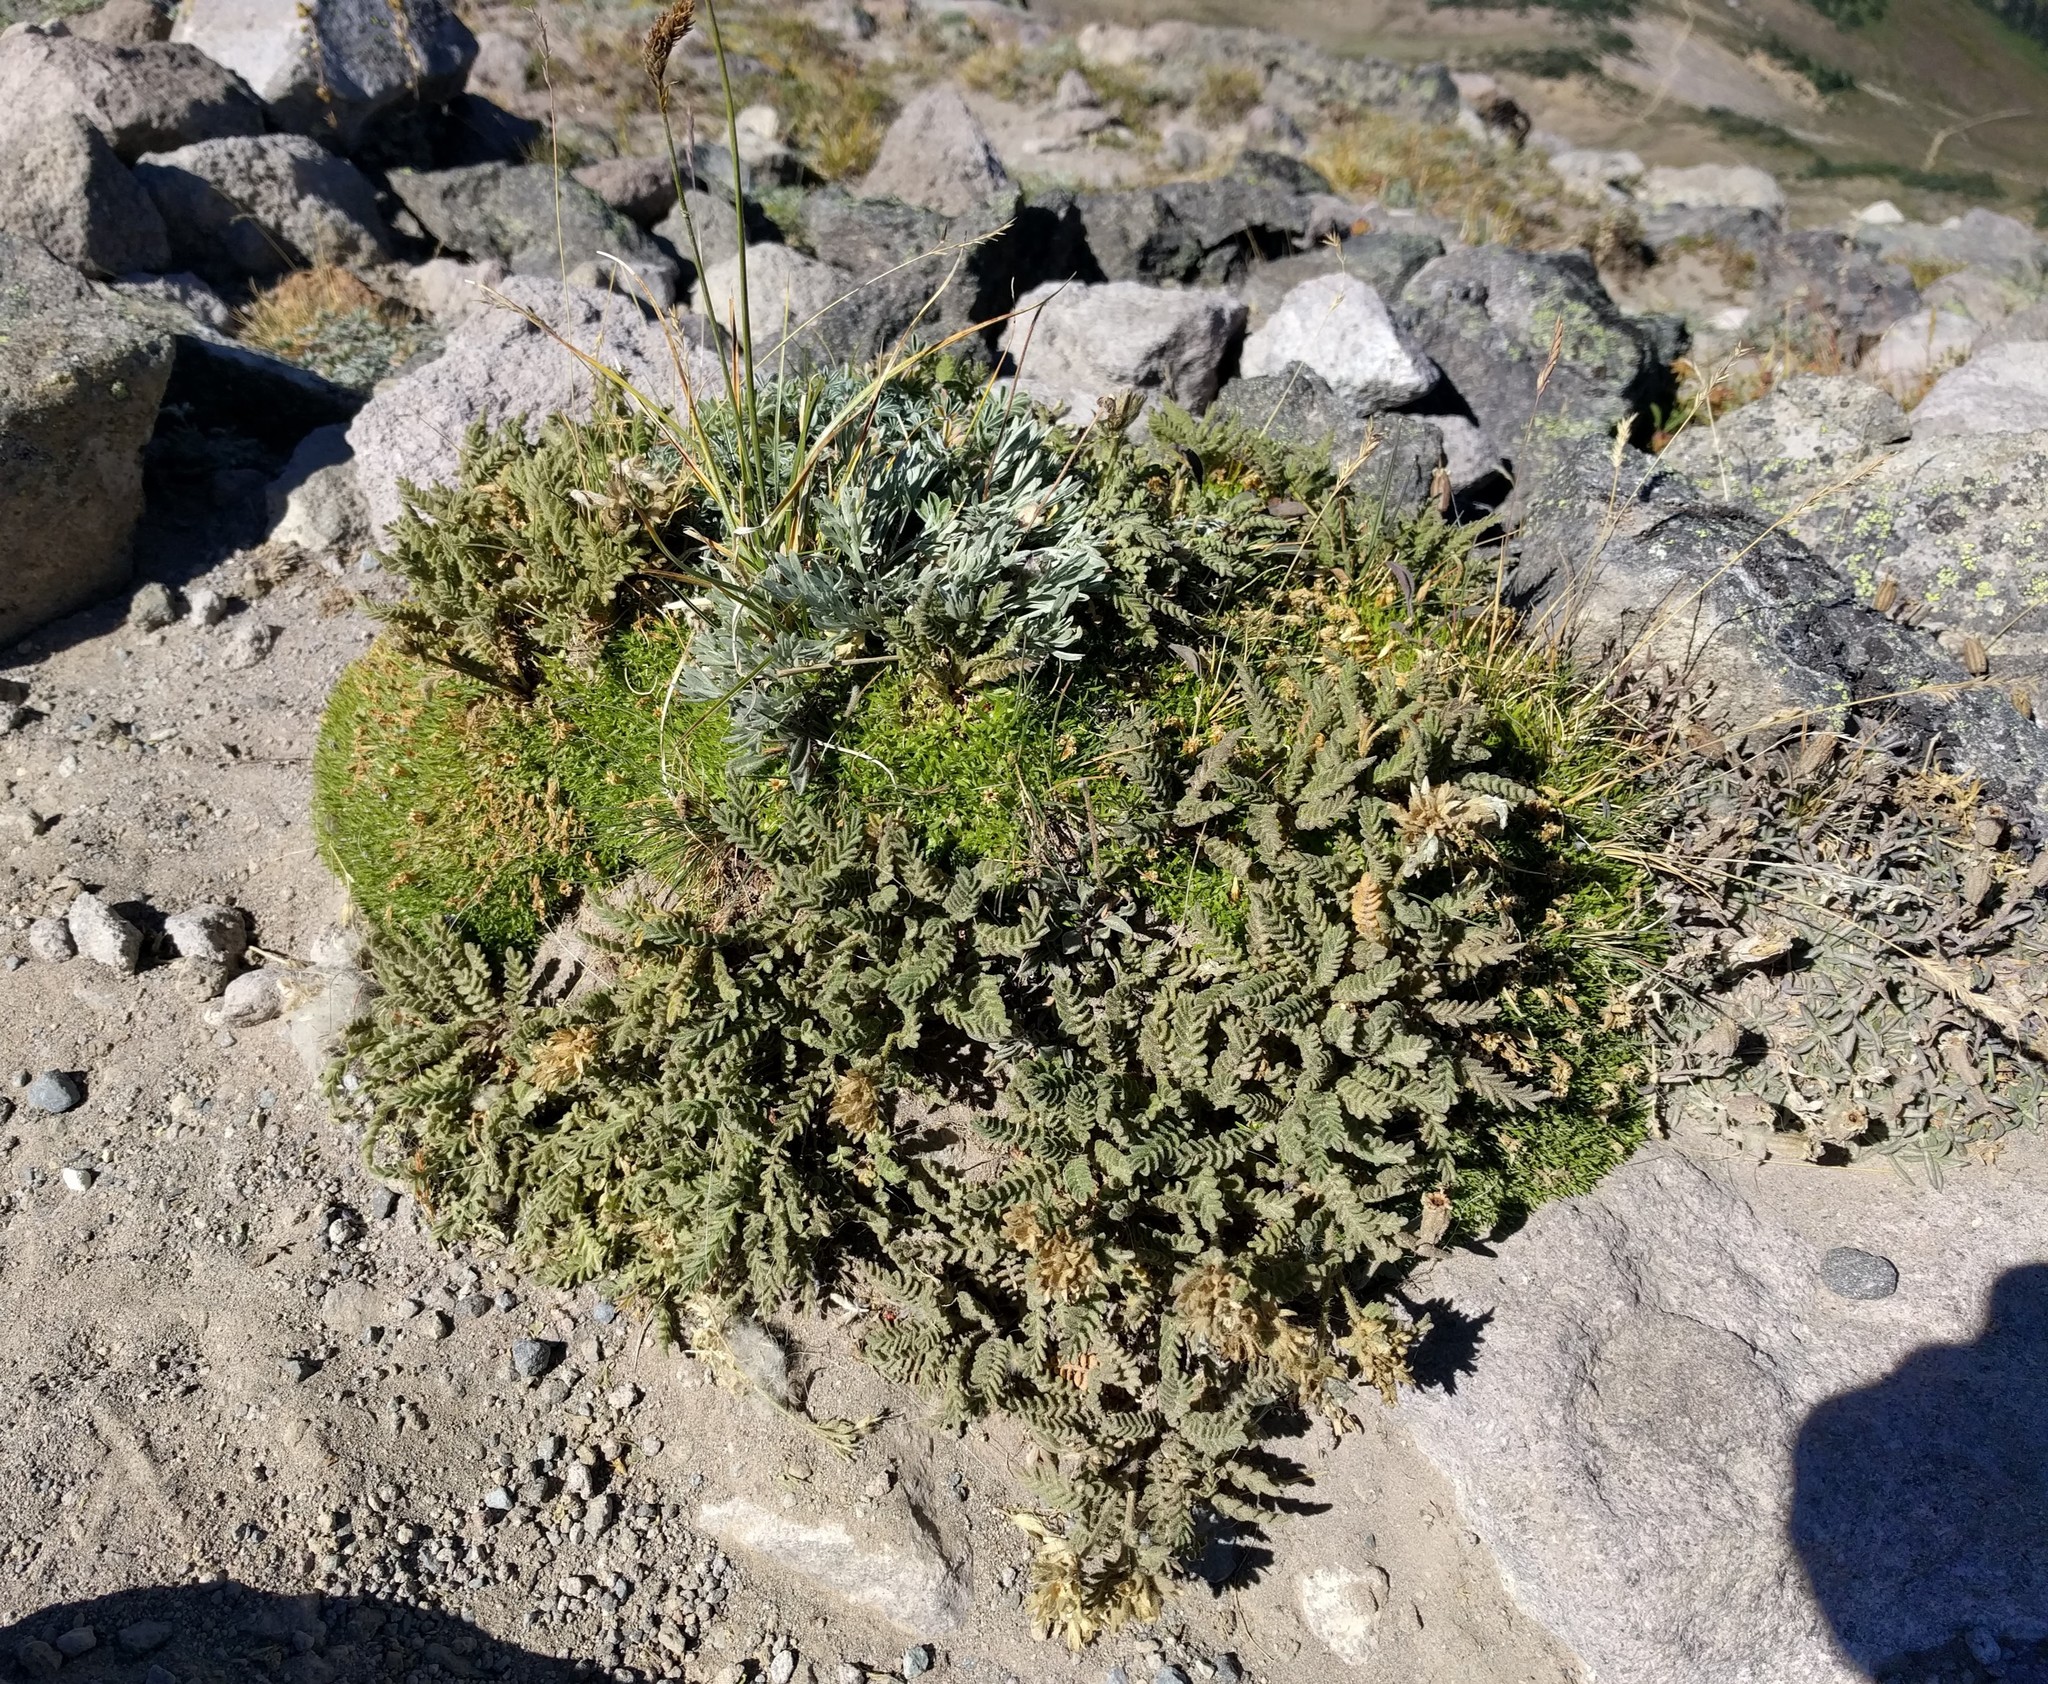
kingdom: Plantae
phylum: Tracheophyta
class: Magnoliopsida
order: Ericales
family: Polemoniaceae
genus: Polemonium
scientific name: Polemonium elegans
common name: Elegant jacob's-ladder
